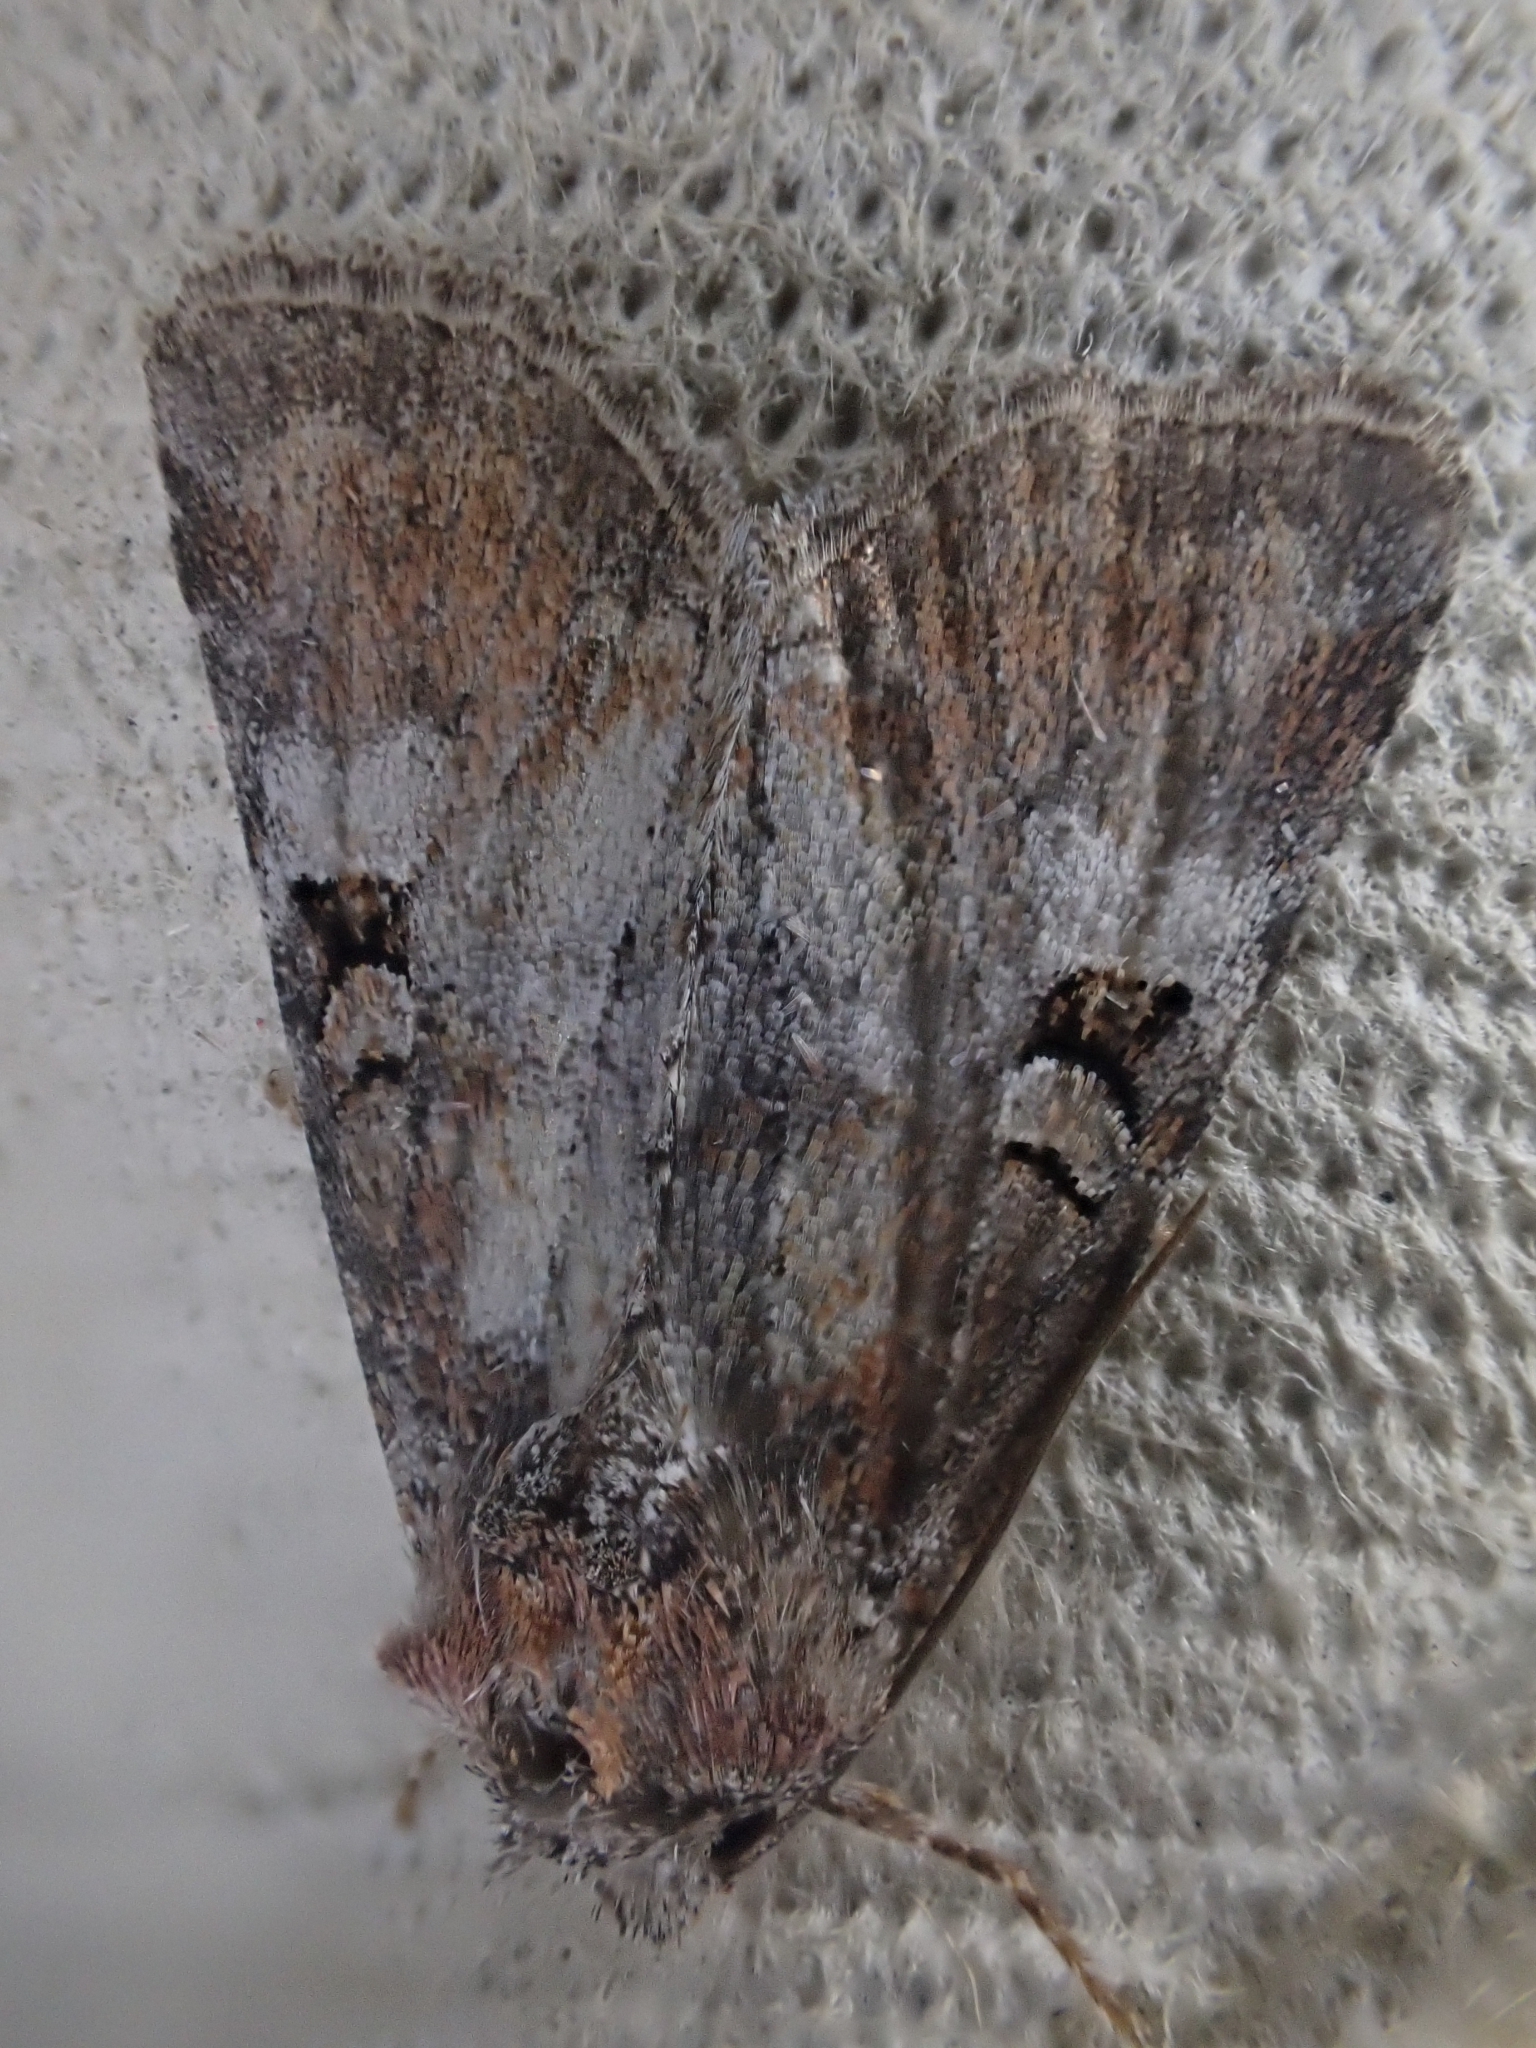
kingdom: Animalia
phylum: Arthropoda
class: Insecta
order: Lepidoptera
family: Noctuidae
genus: Litoligia
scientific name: Litoligia literosa
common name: Rosy minor
